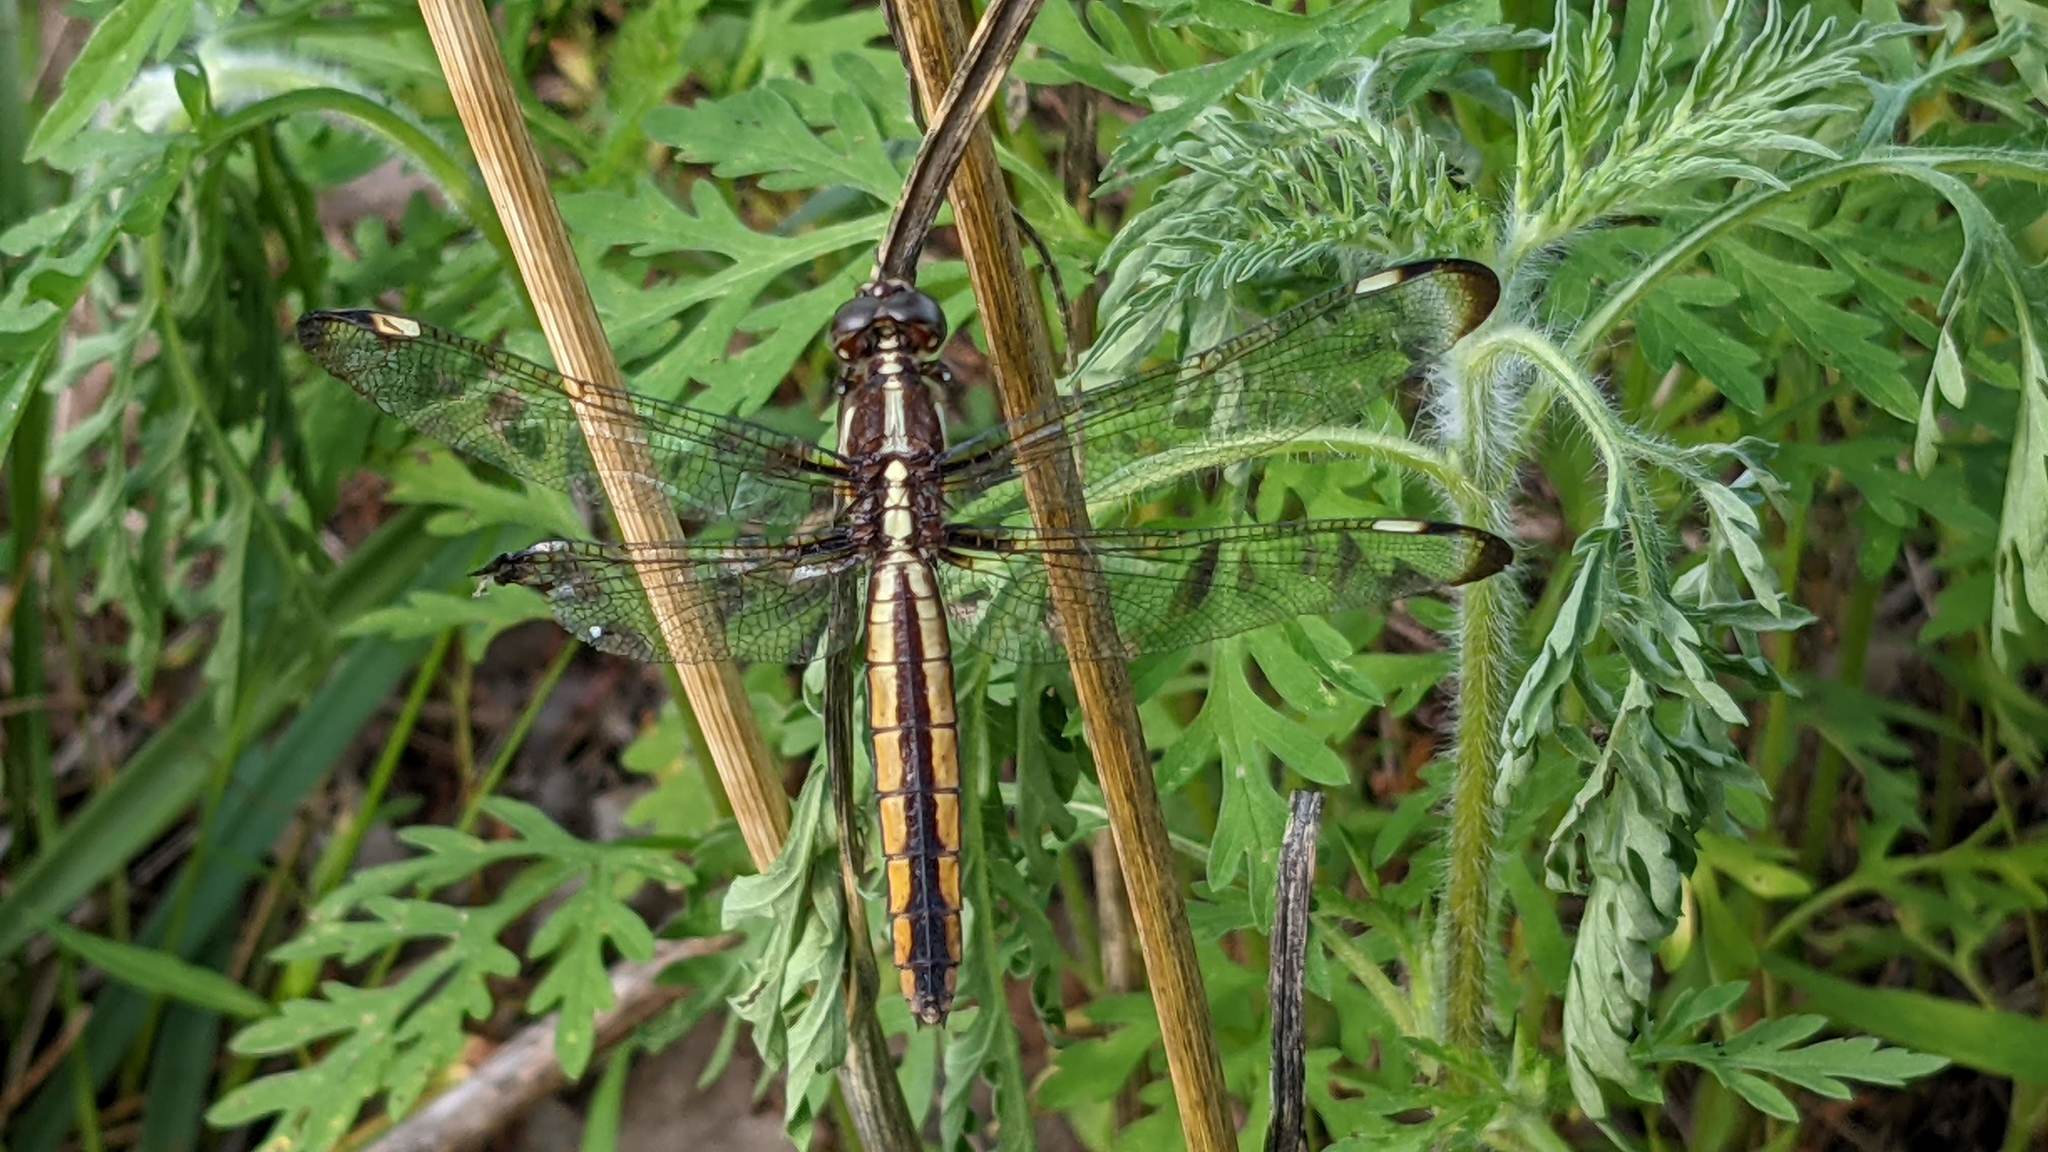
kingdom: Animalia
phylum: Arthropoda
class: Insecta
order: Odonata
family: Libellulidae
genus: Libellula
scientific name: Libellula cyanea
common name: Spangled skimmer
